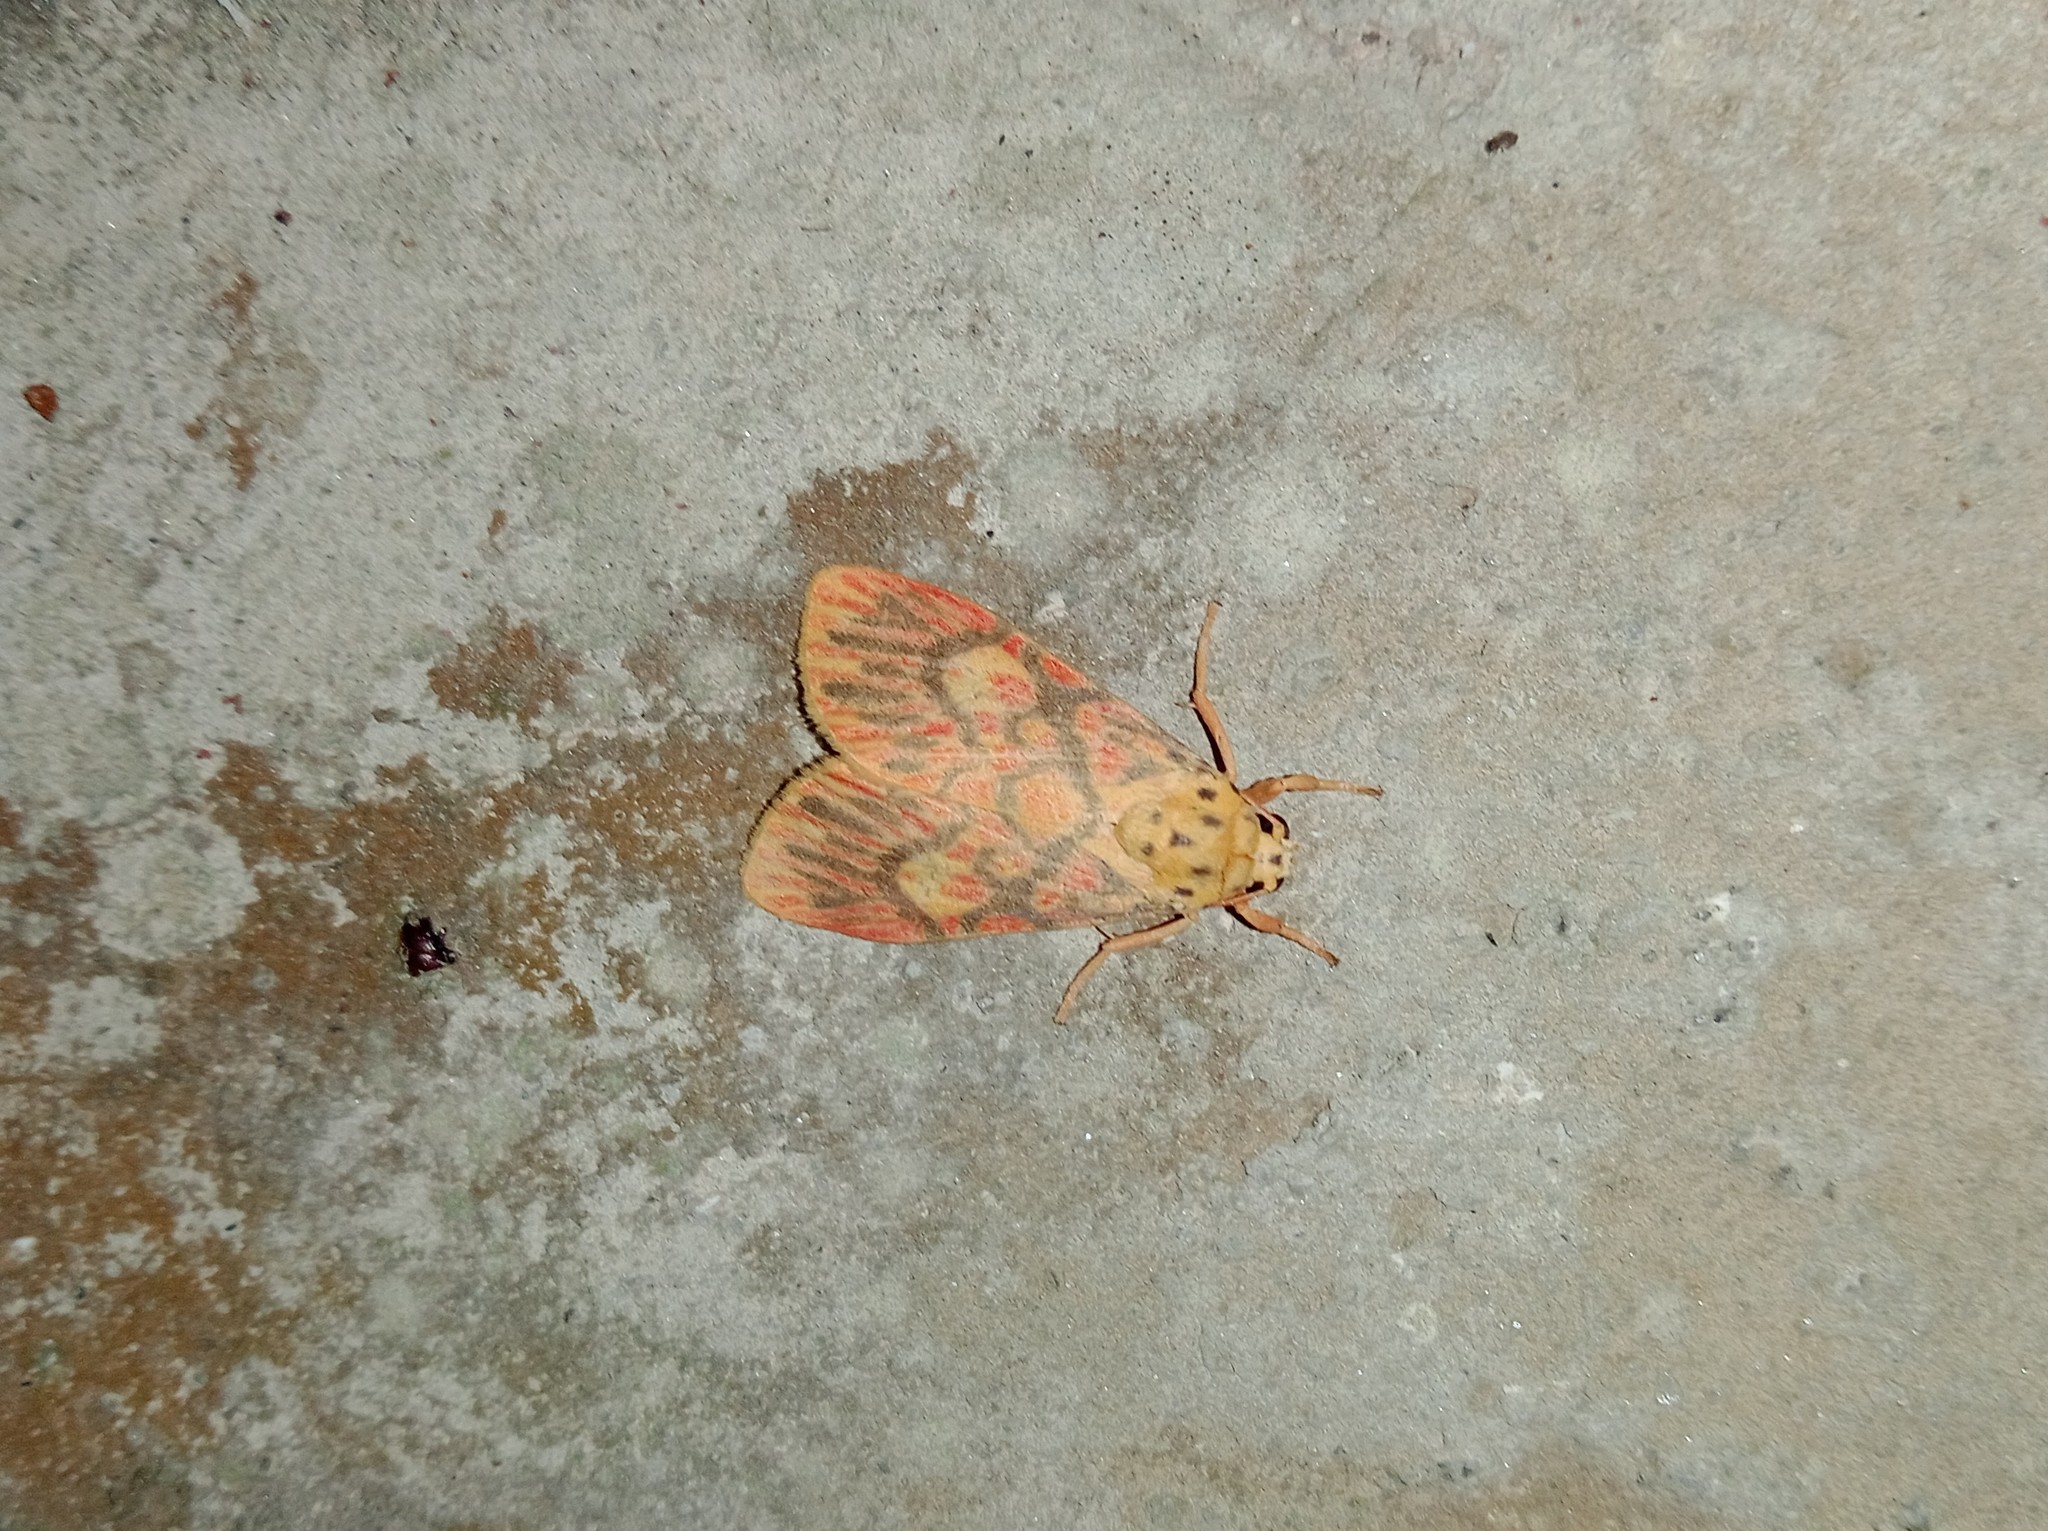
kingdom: Animalia
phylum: Arthropoda
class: Insecta
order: Lepidoptera
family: Erebidae
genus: Ammatho
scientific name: Ammatho cuneonotatus
